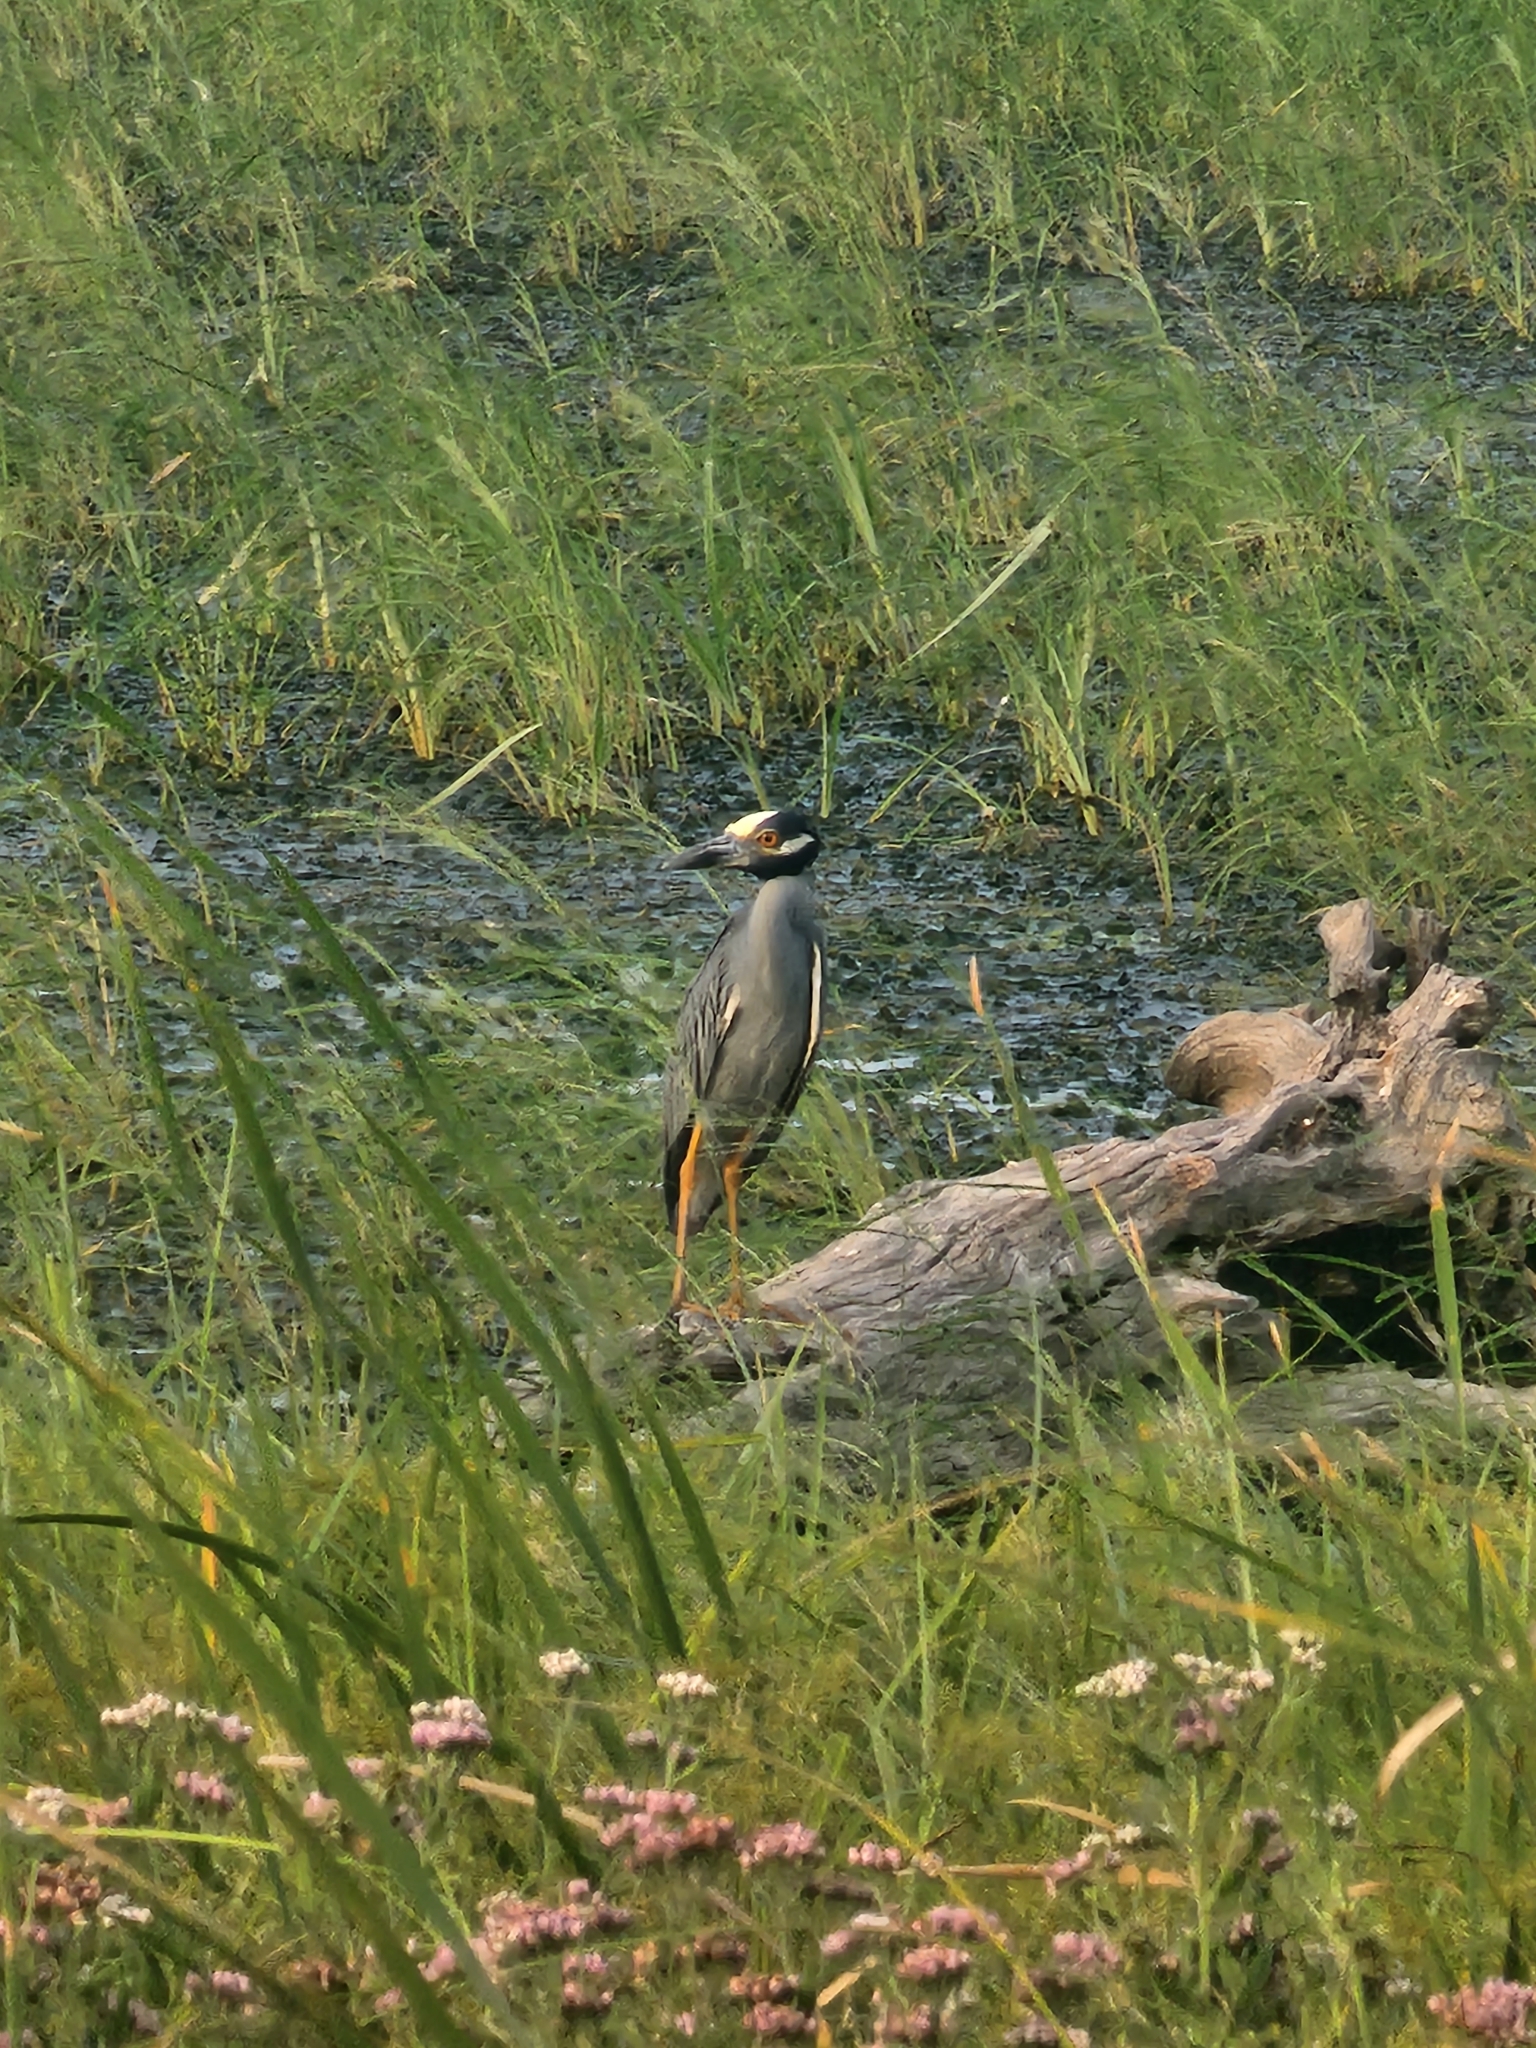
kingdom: Animalia
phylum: Chordata
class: Aves
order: Pelecaniformes
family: Ardeidae
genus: Nyctanassa
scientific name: Nyctanassa violacea
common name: Yellow-crowned night heron
